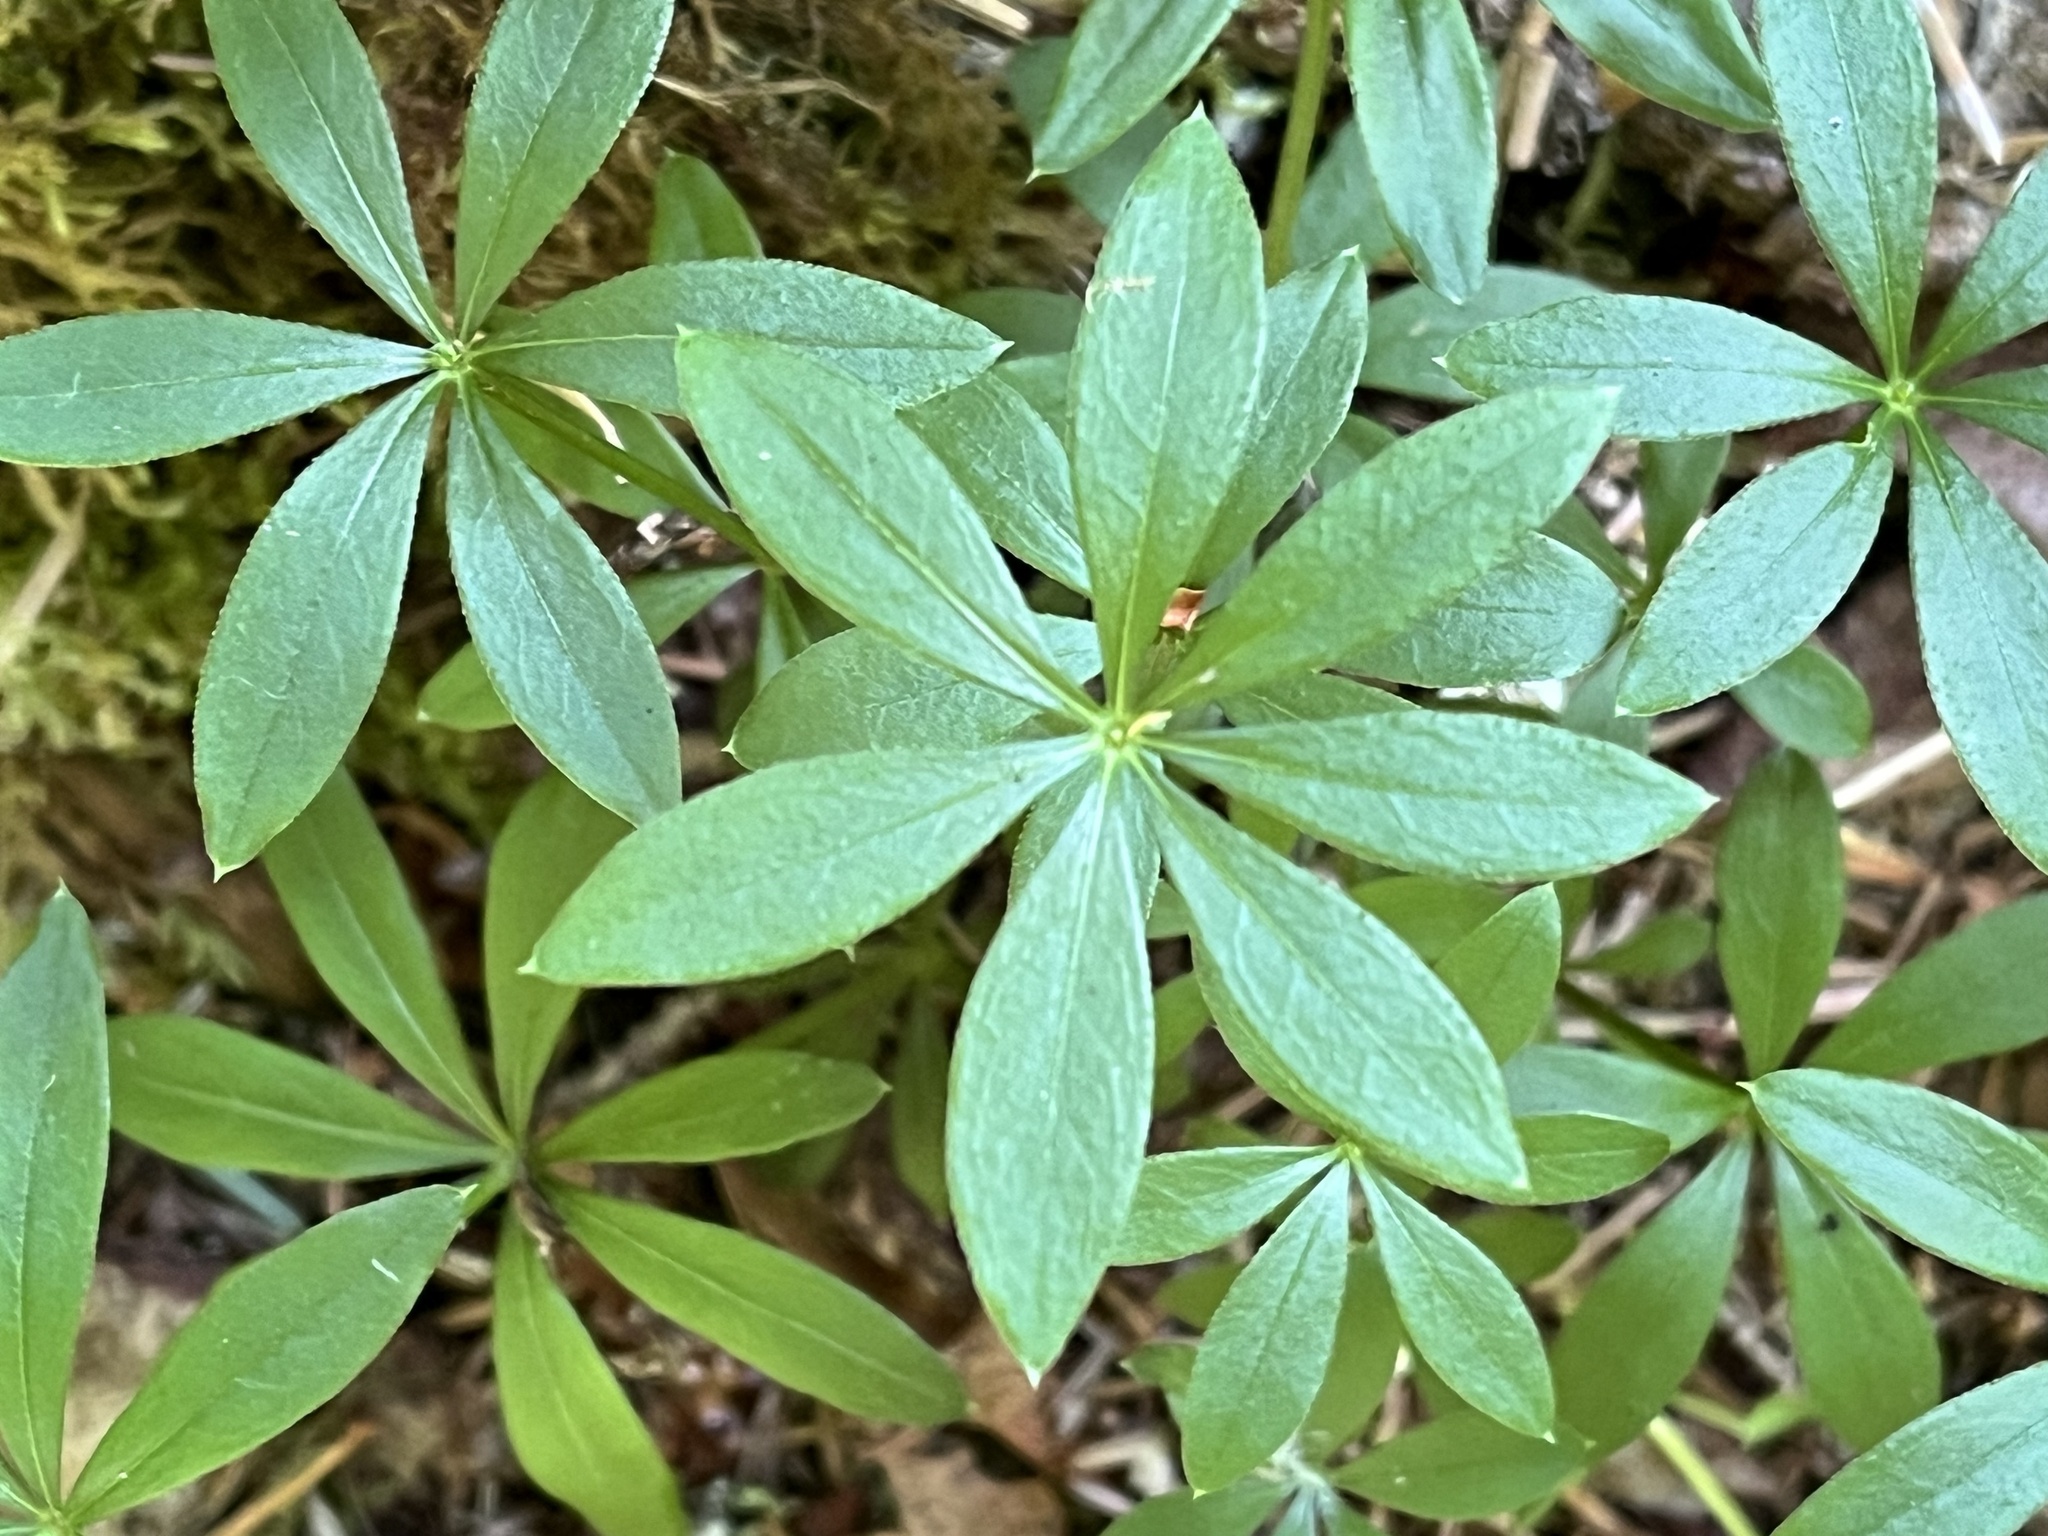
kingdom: Plantae
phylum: Tracheophyta
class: Magnoliopsida
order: Gentianales
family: Rubiaceae
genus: Galium
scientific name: Galium triflorum
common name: Fragrant bedstraw
